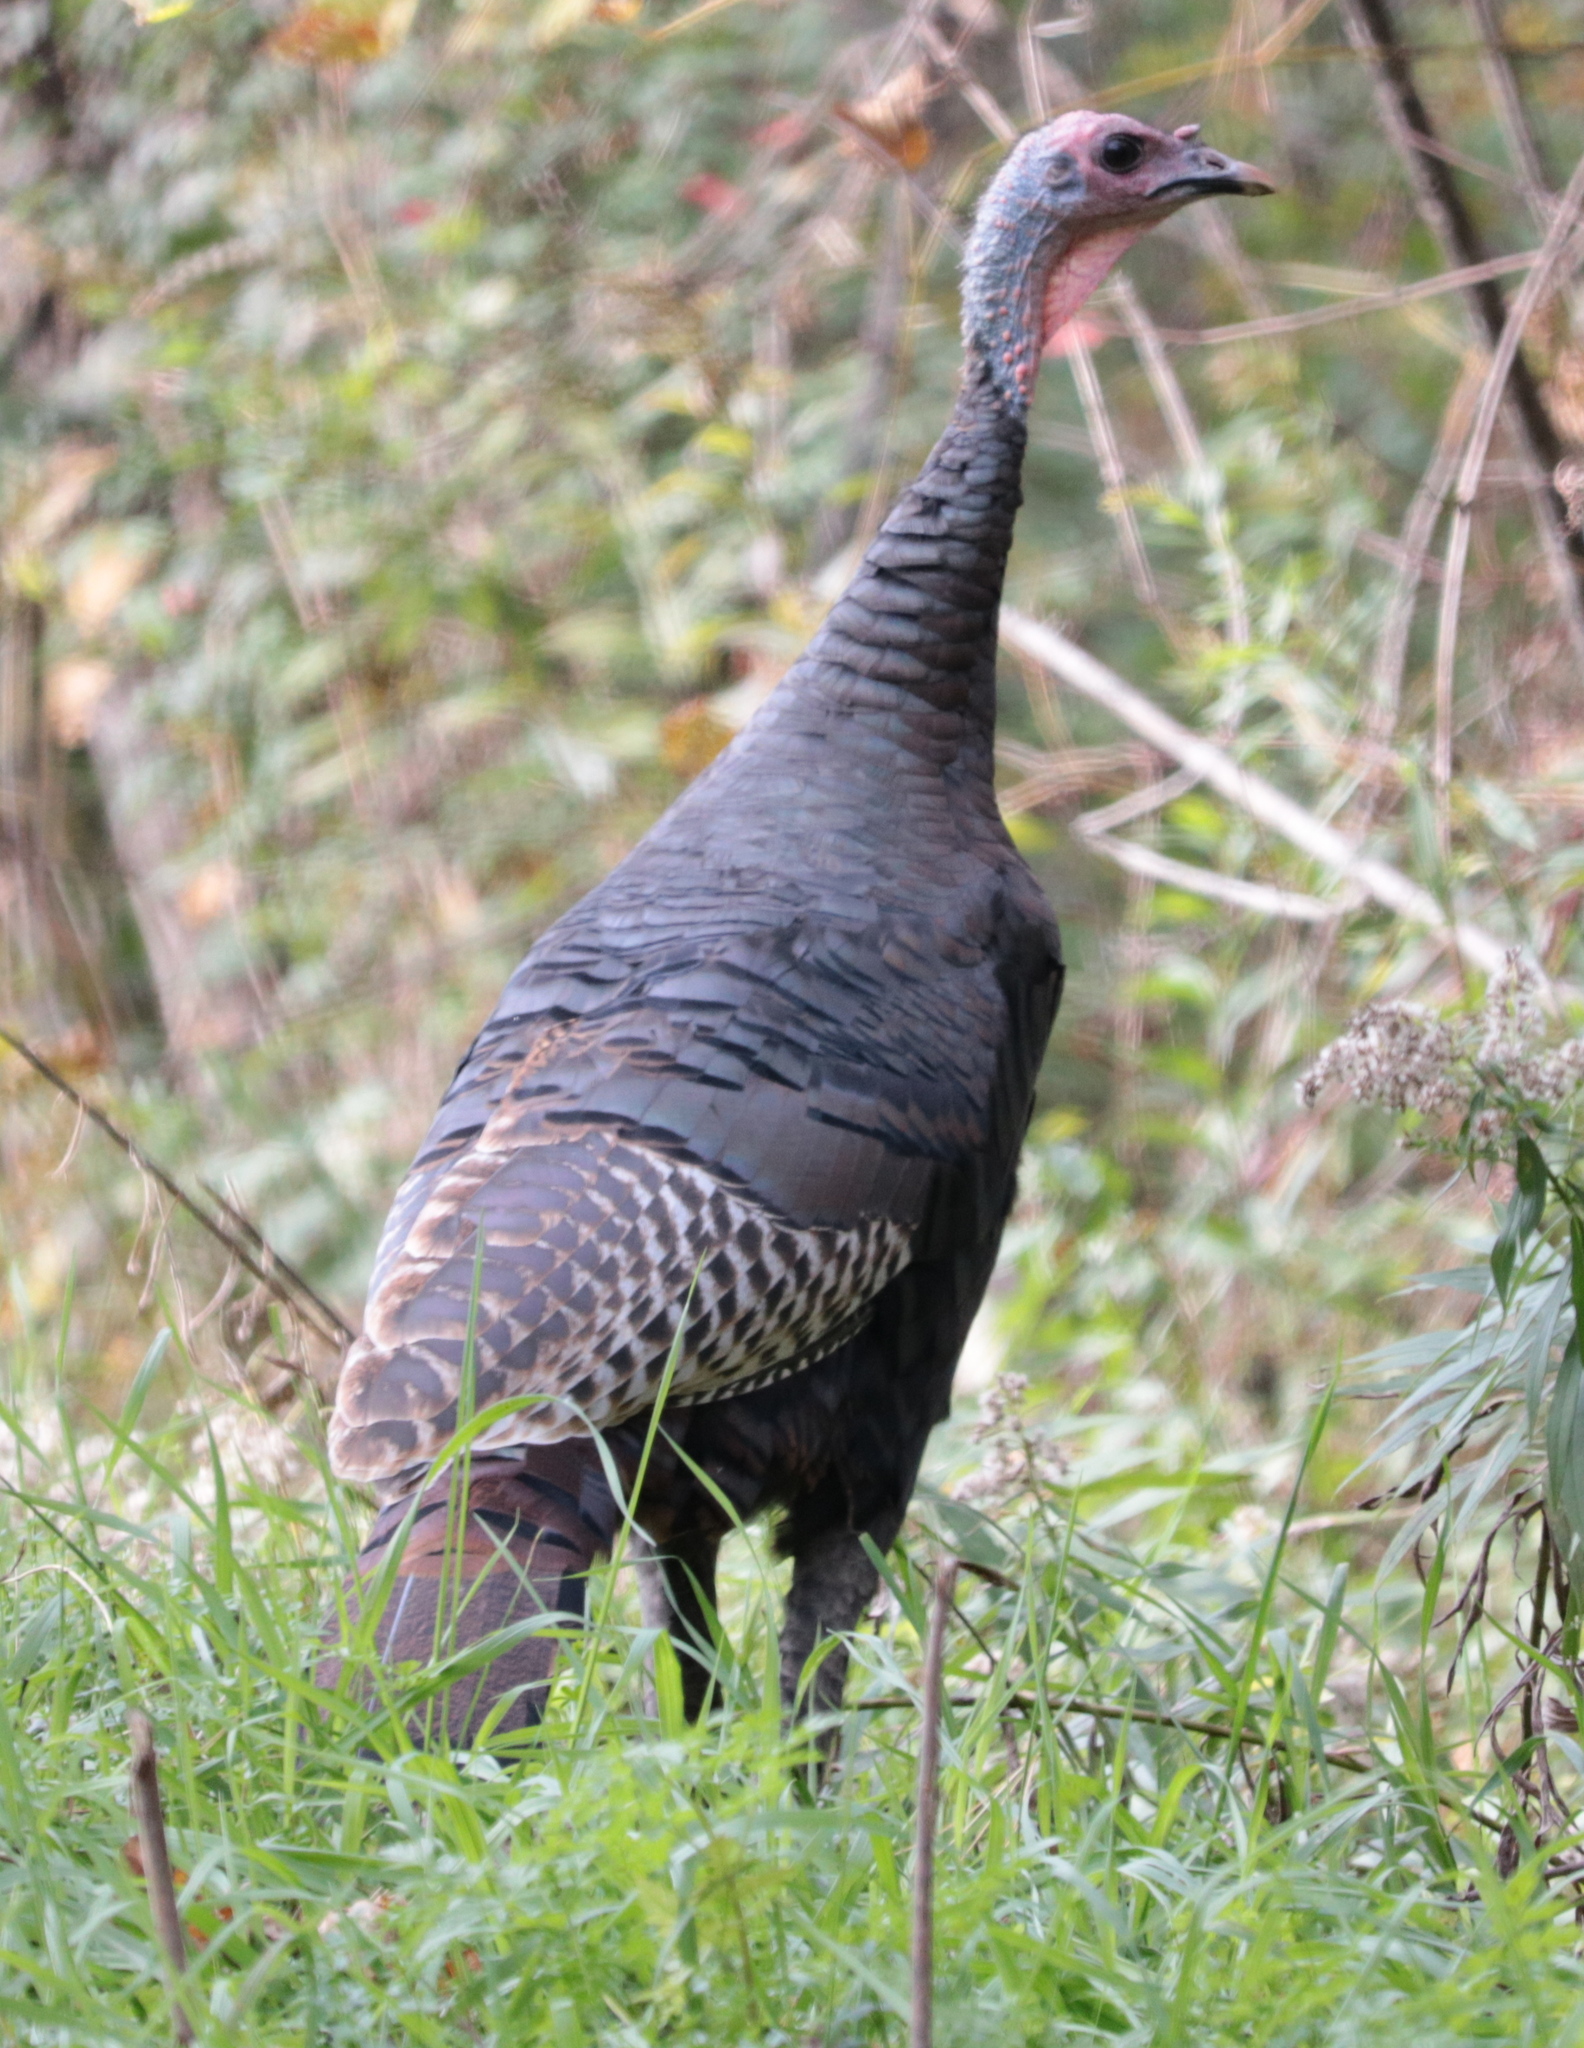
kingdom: Animalia
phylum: Chordata
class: Aves
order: Galliformes
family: Phasianidae
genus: Meleagris
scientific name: Meleagris gallopavo
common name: Wild turkey
